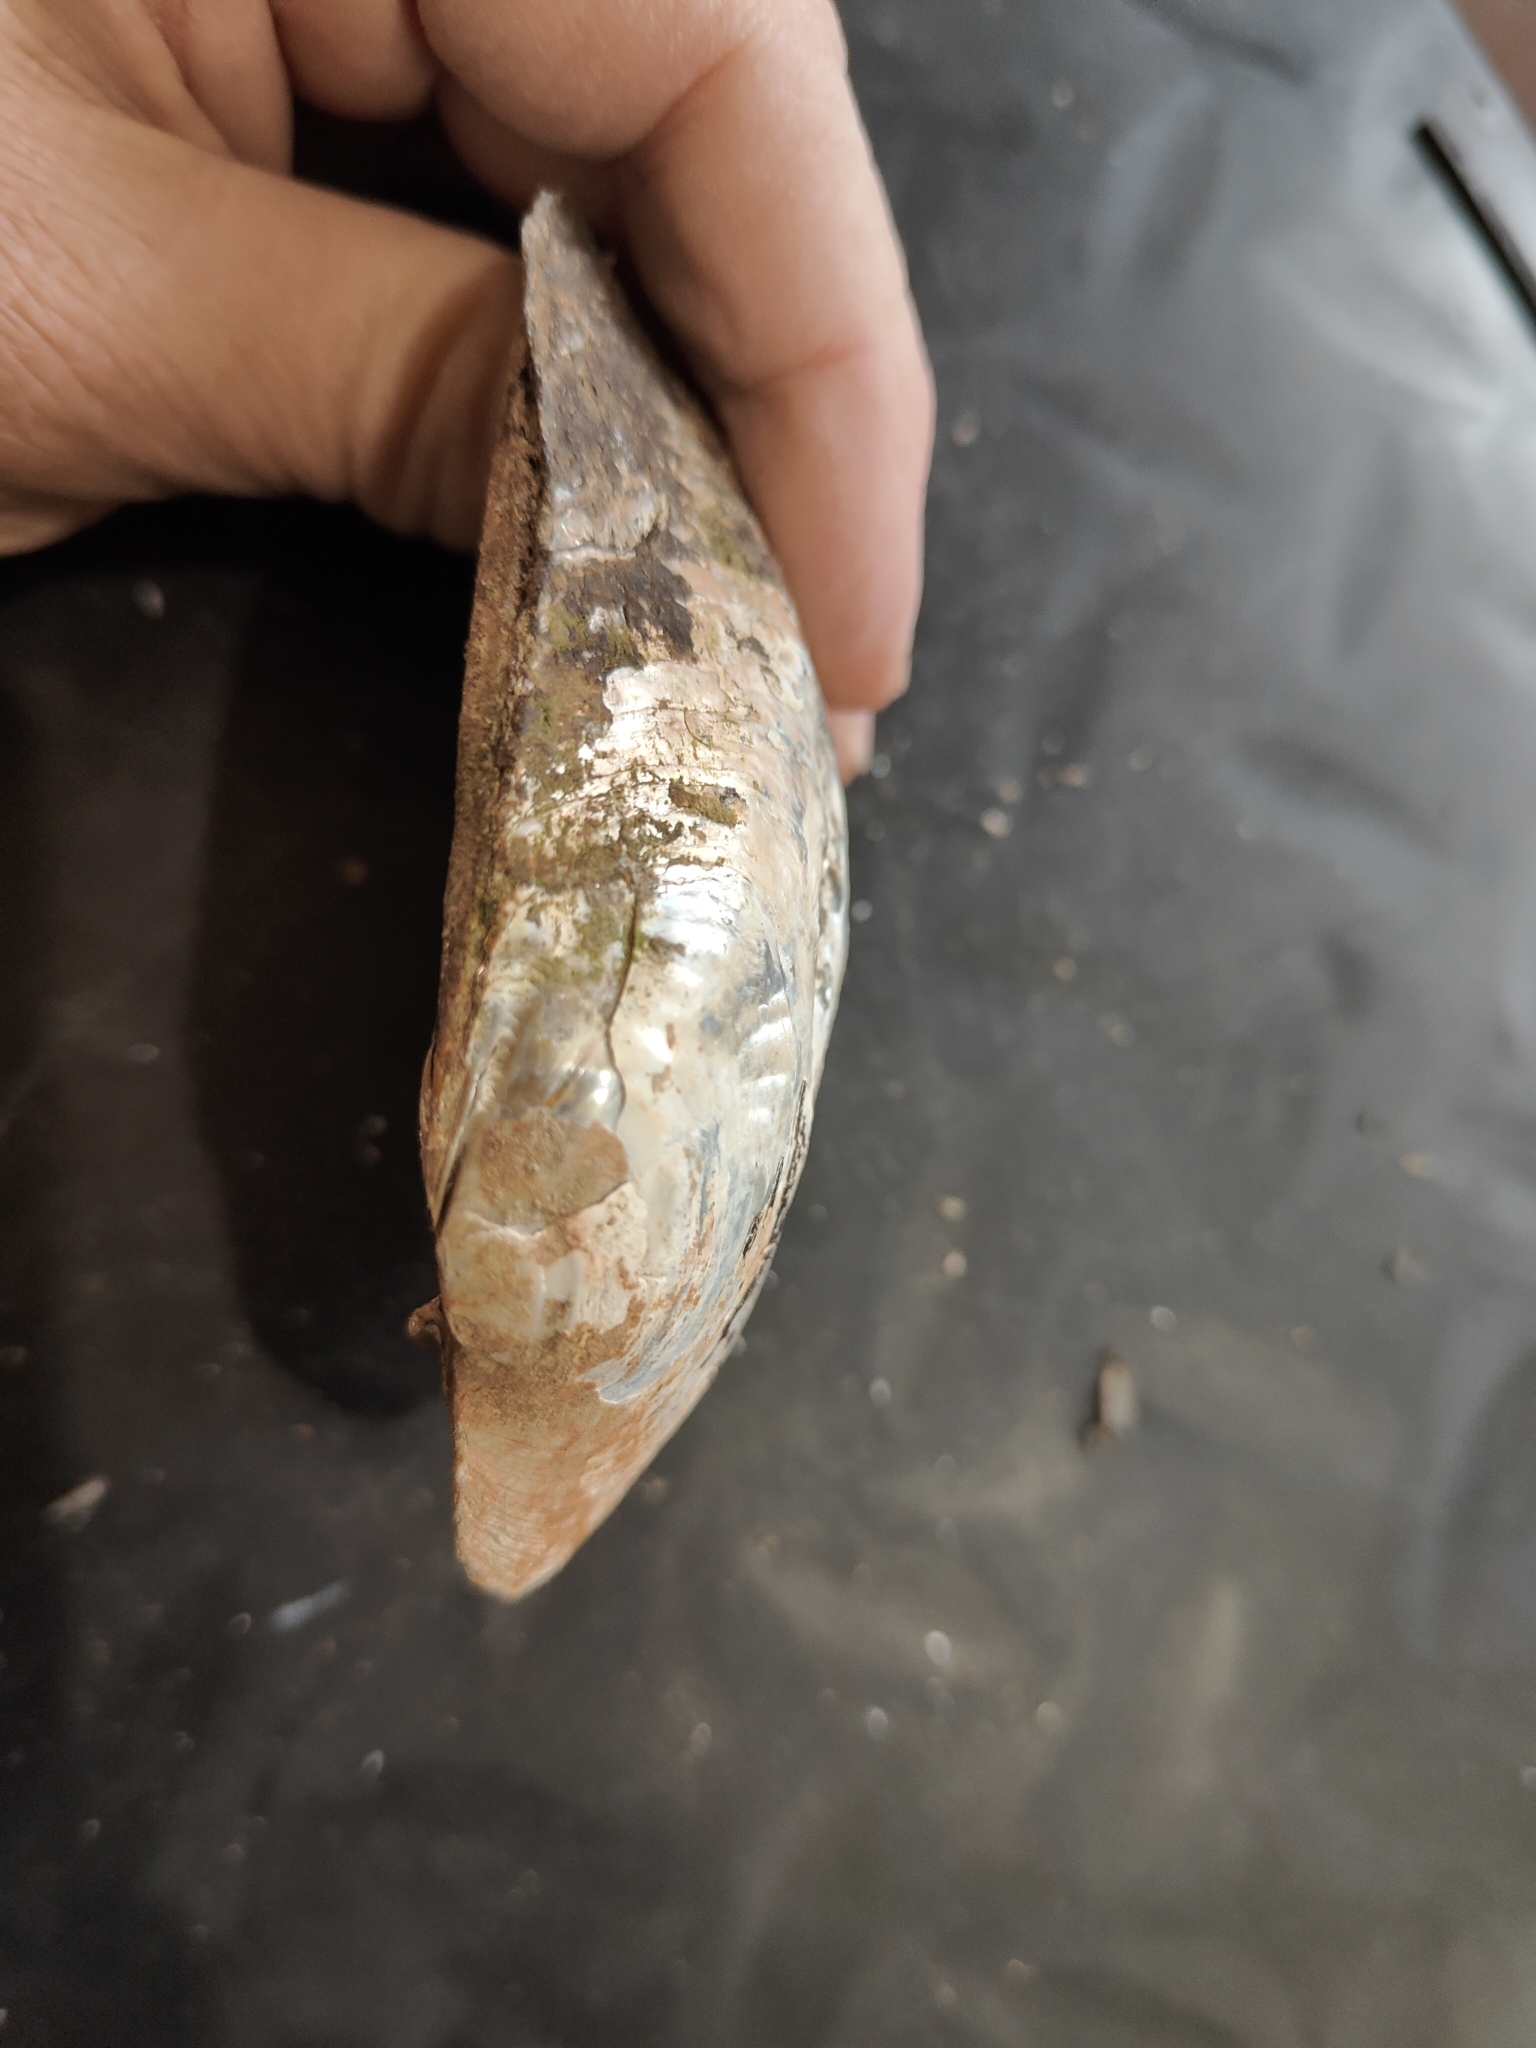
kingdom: Animalia
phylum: Mollusca
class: Bivalvia
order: Unionida
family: Unionidae
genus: Amblema
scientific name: Amblema plicata
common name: Threeridge
